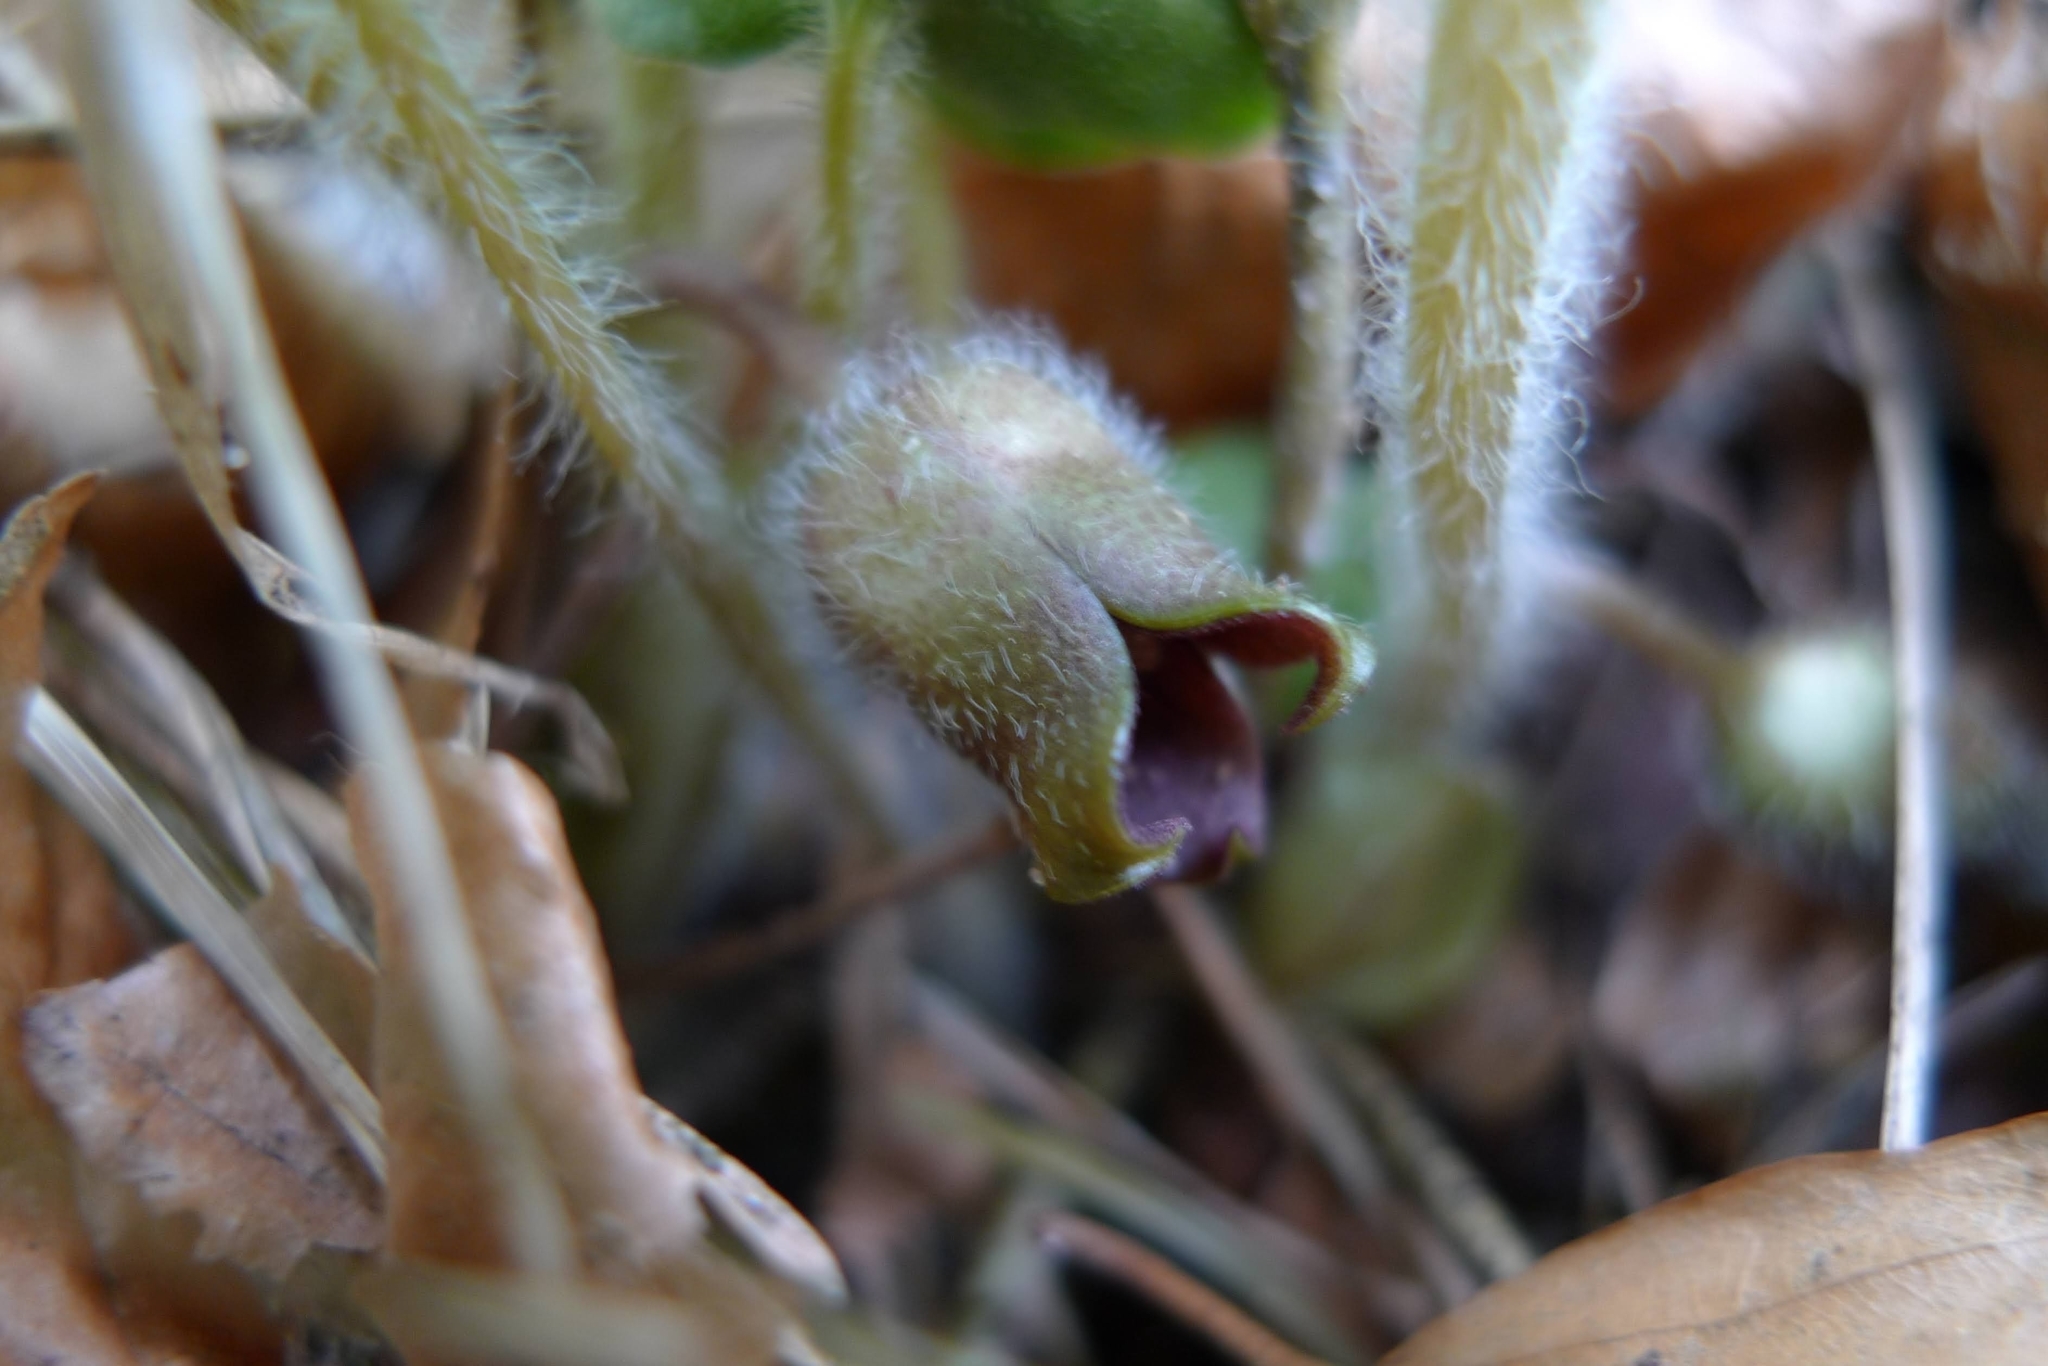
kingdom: Plantae
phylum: Tracheophyta
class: Magnoliopsida
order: Piperales
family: Aristolochiaceae
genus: Asarum
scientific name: Asarum europaeum
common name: Asarabacca
